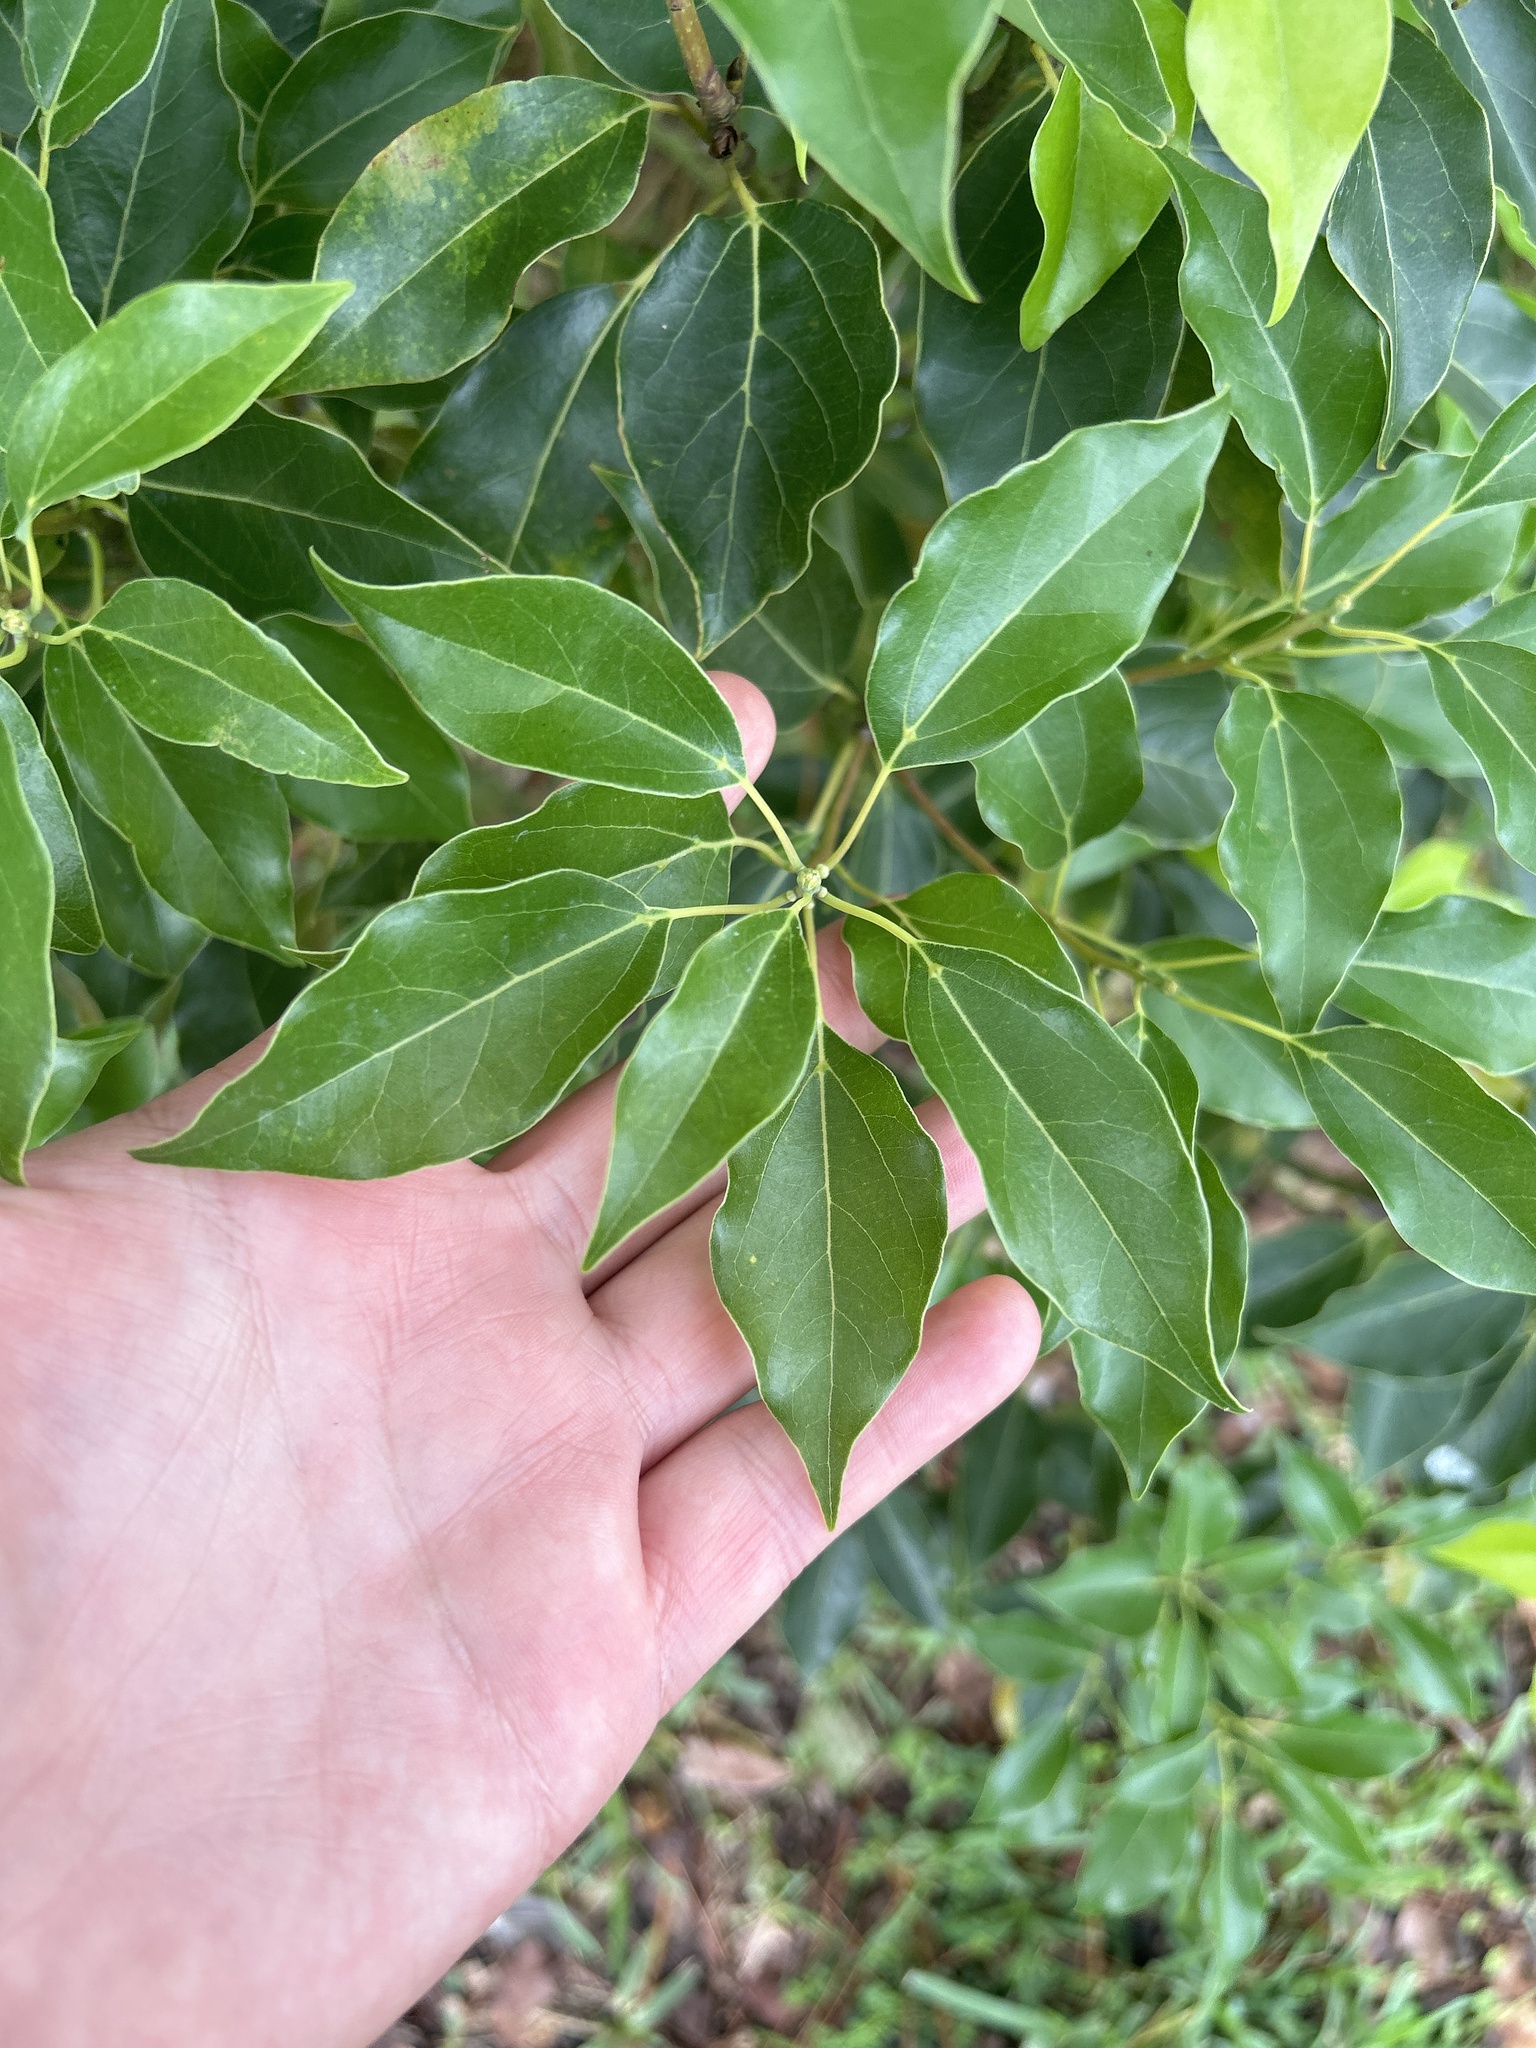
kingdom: Plantae
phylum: Tracheophyta
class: Magnoliopsida
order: Laurales
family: Lauraceae
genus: Cinnamomum
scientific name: Cinnamomum camphora
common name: Camphortree
